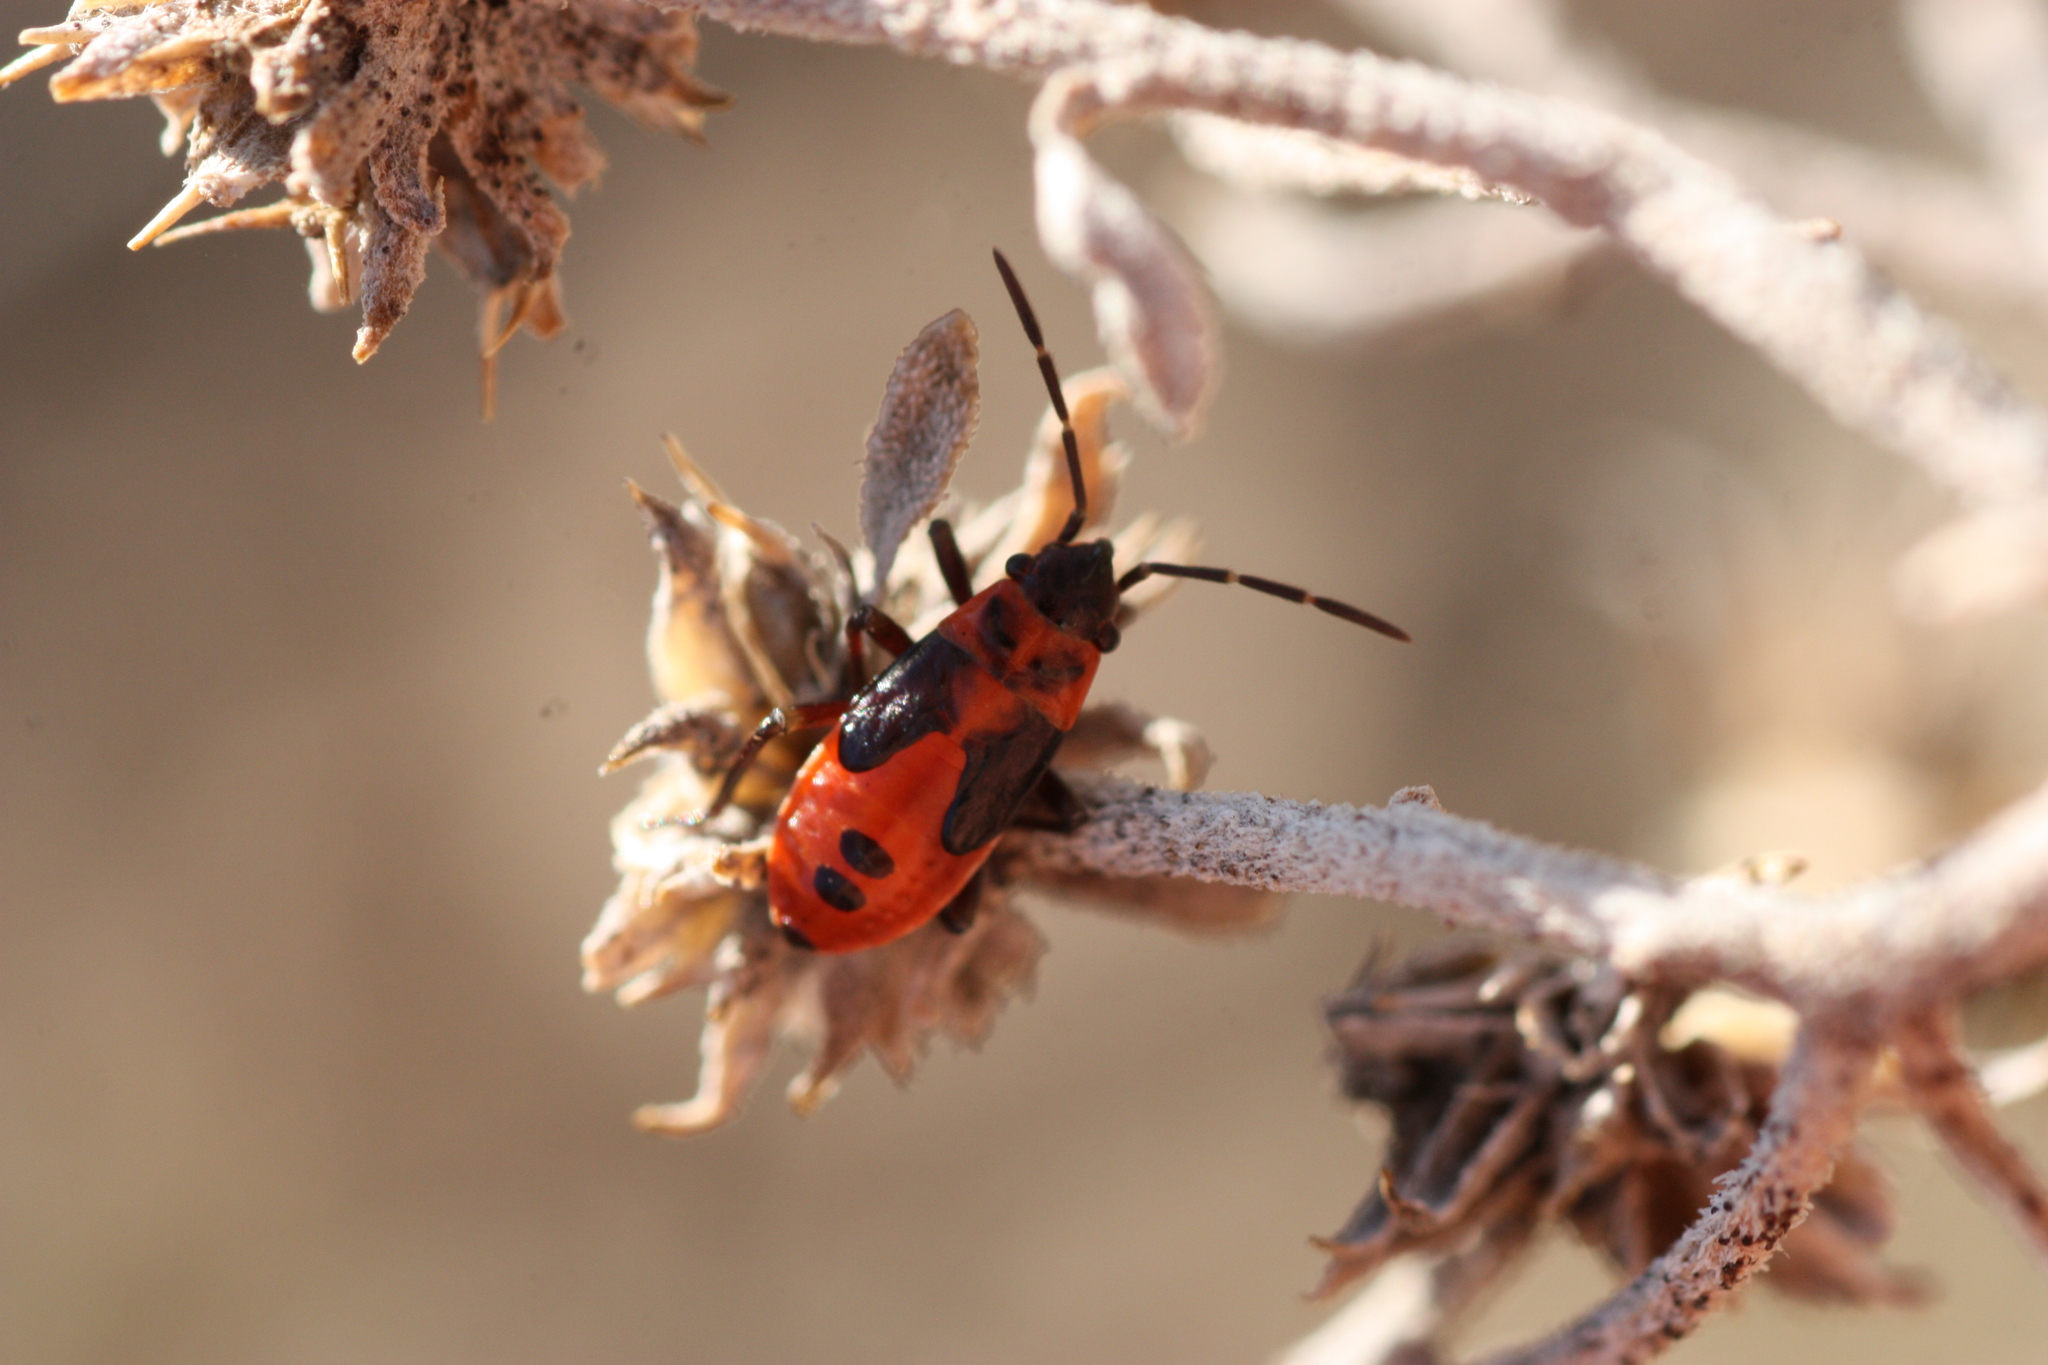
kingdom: Animalia
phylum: Arthropoda
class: Insecta
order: Hemiptera
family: Lygaeidae
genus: Lygaeus
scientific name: Lygaeus turcicus
